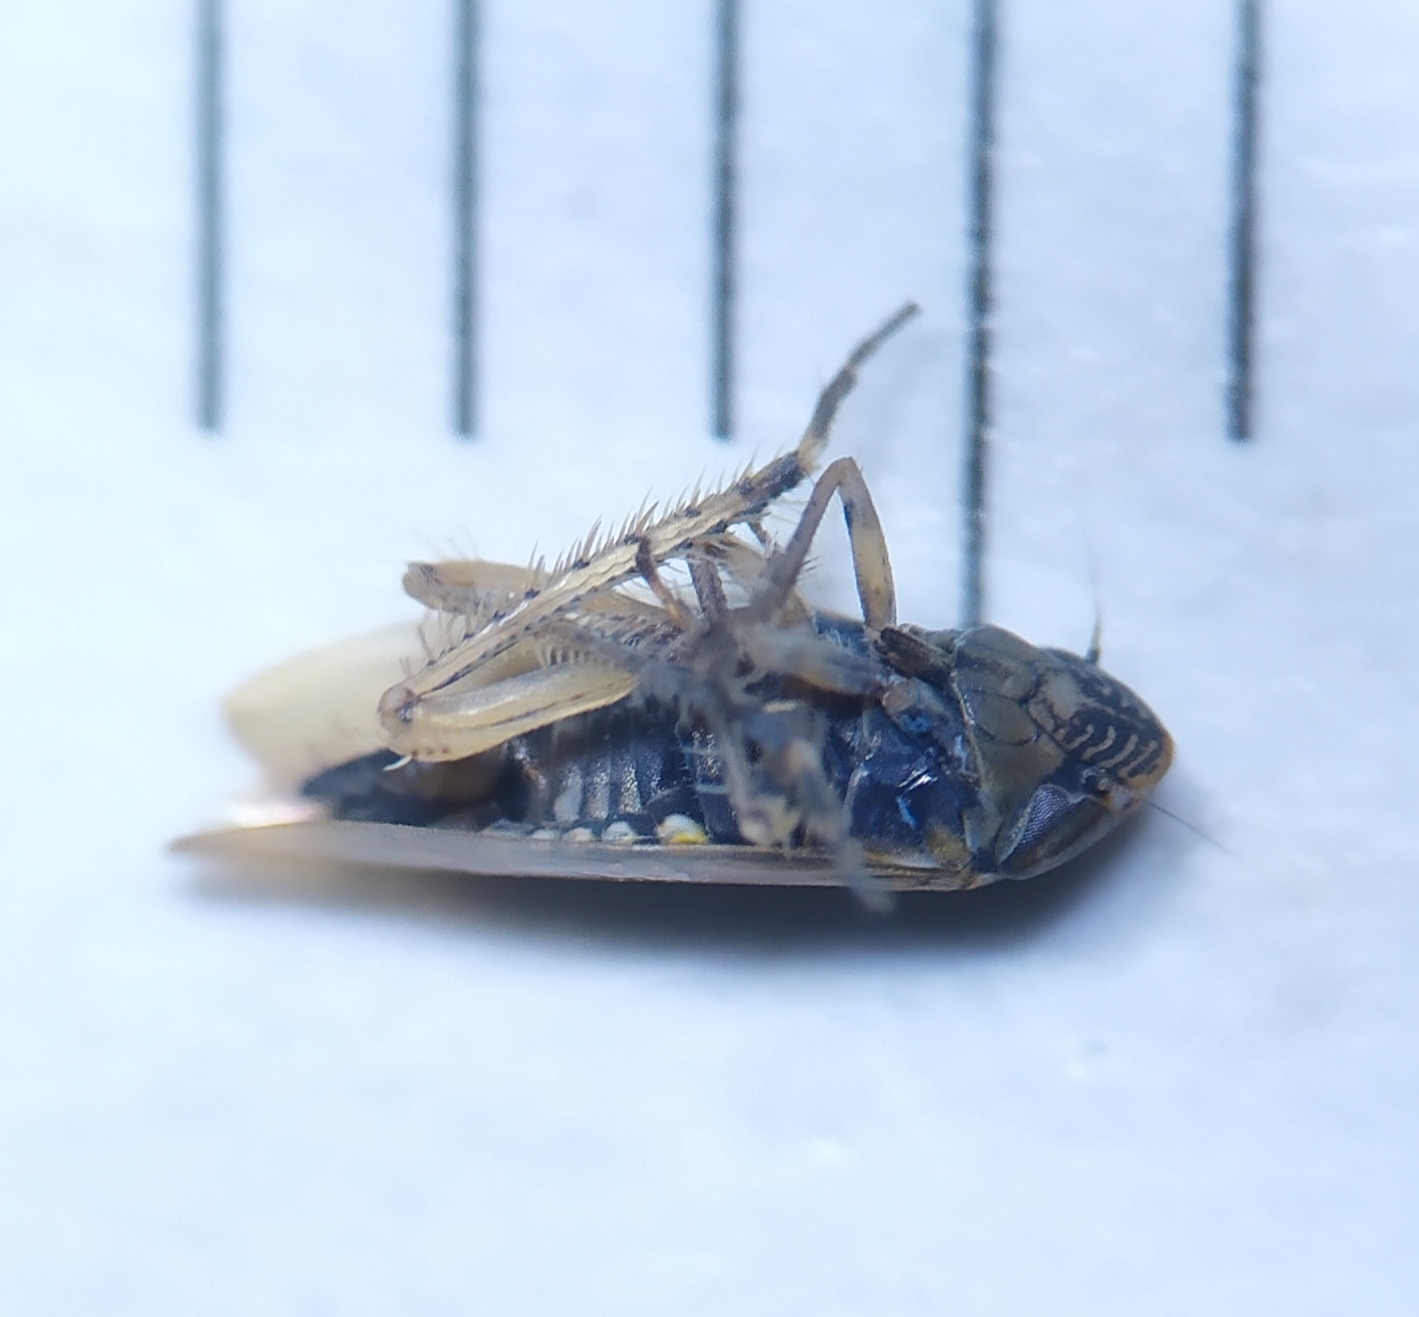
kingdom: Animalia
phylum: Arthropoda
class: Insecta
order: Hemiptera
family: Cicadellidae
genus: Hardya
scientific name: Hardya tenuis
